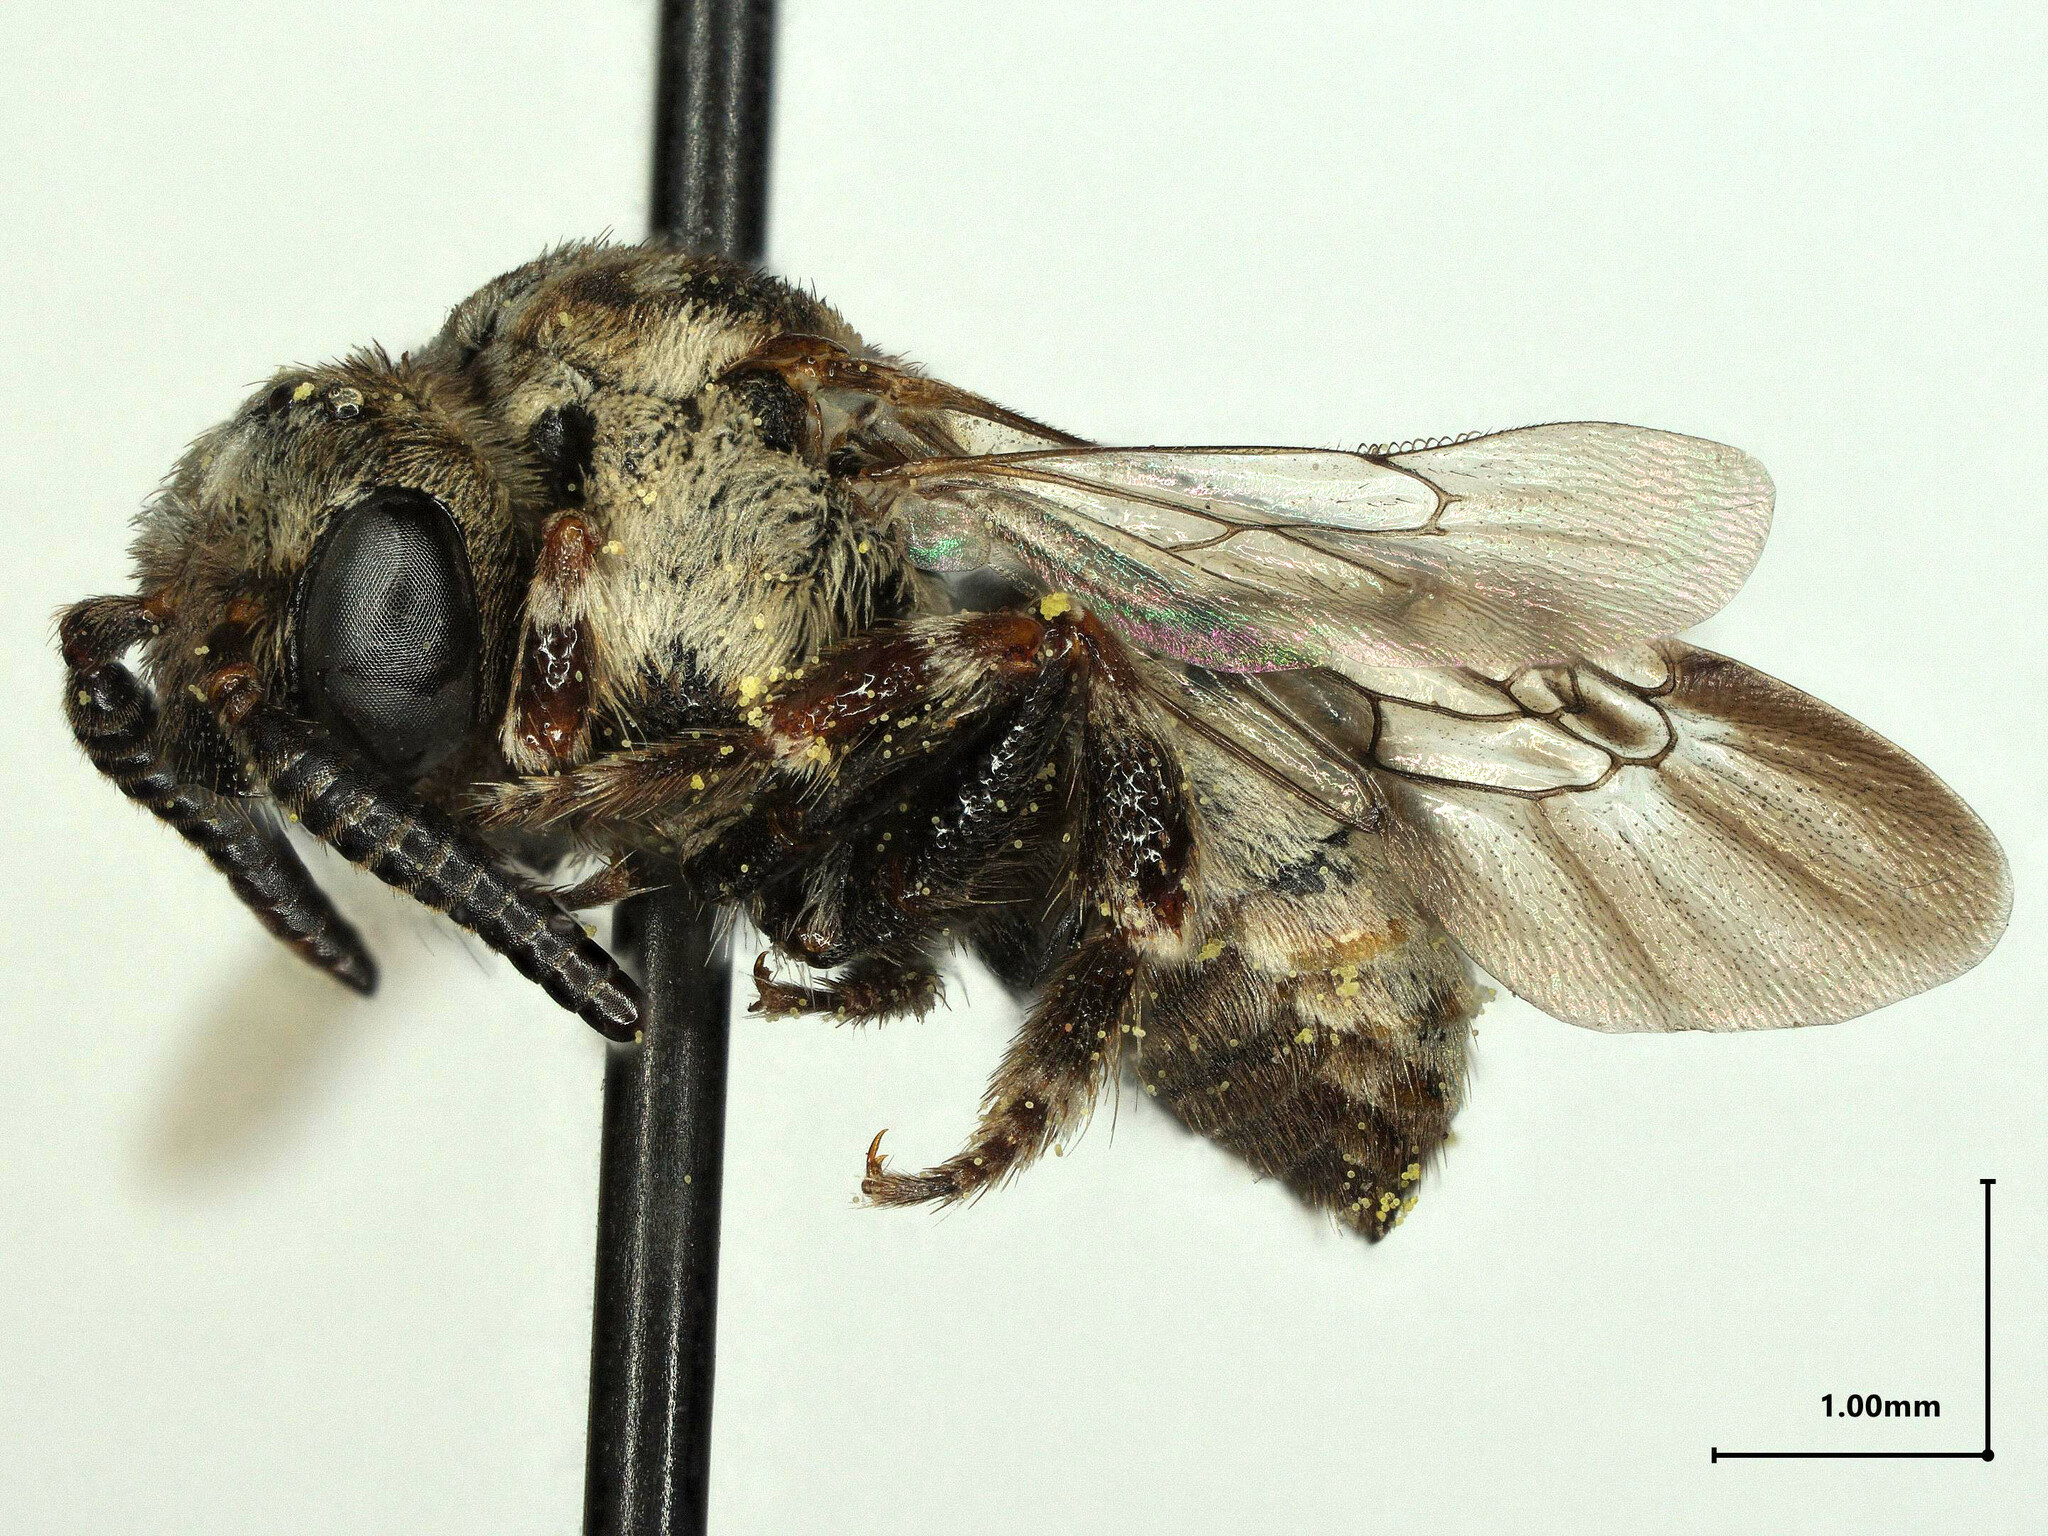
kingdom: Animalia
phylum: Arthropoda
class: Insecta
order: Hymenoptera
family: Apidae
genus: Zacosmia
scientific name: Zacosmia maculata
